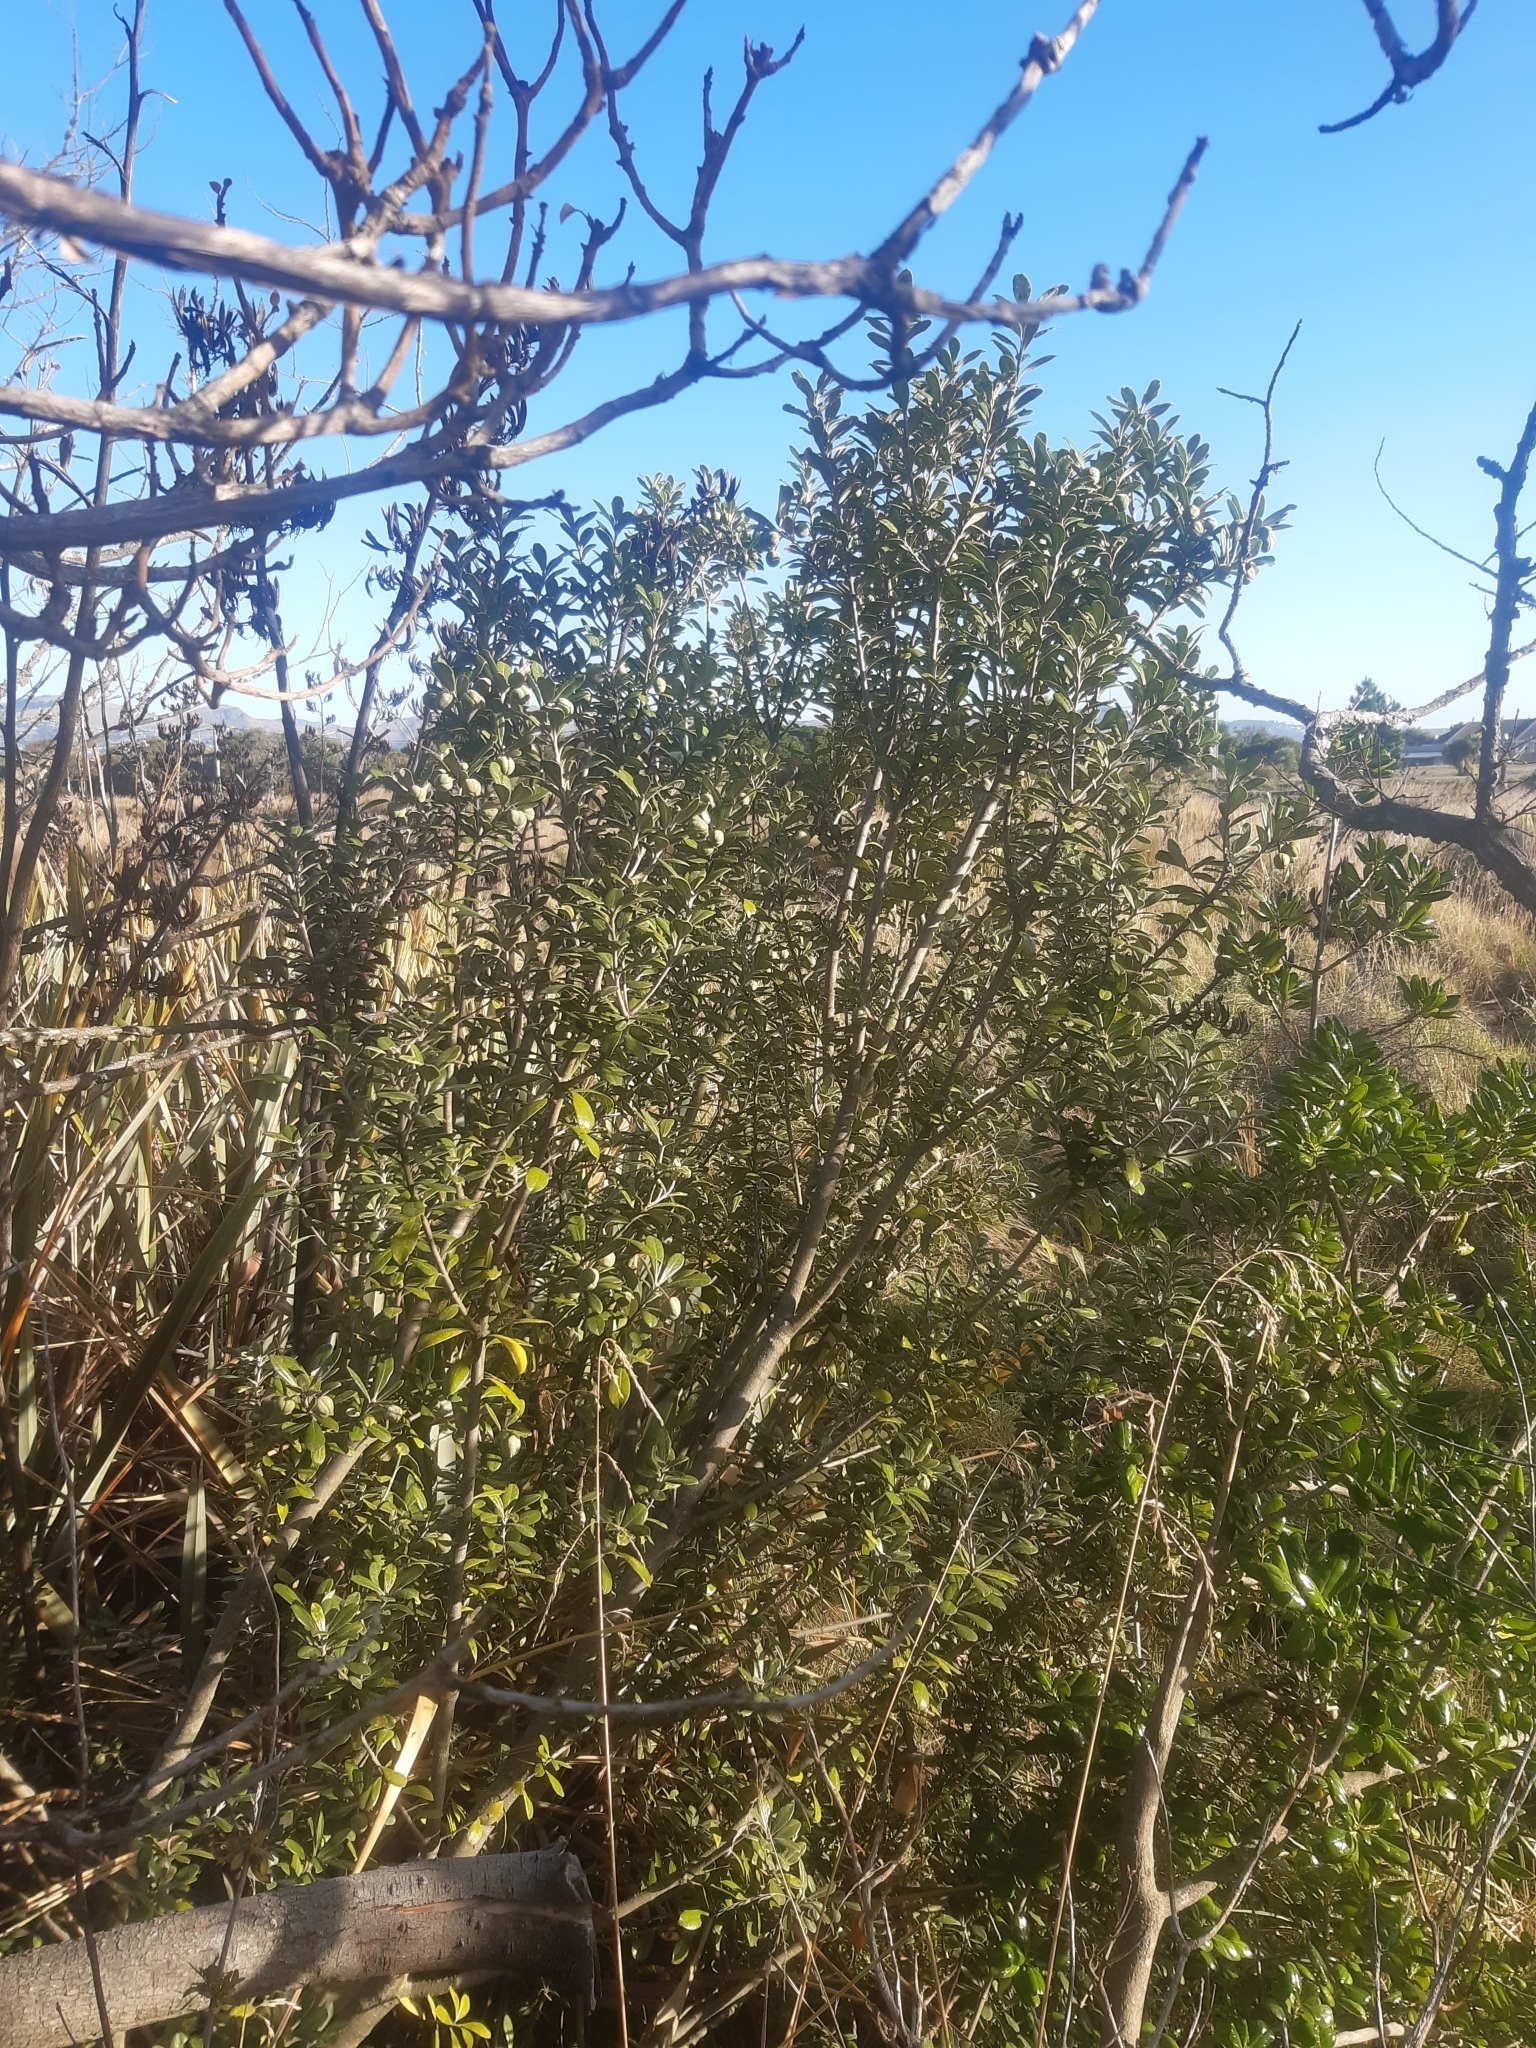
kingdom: Plantae
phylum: Tracheophyta
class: Magnoliopsida
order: Apiales
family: Pittosporaceae
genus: Pittosporum
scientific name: Pittosporum crassifolium
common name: Karo
